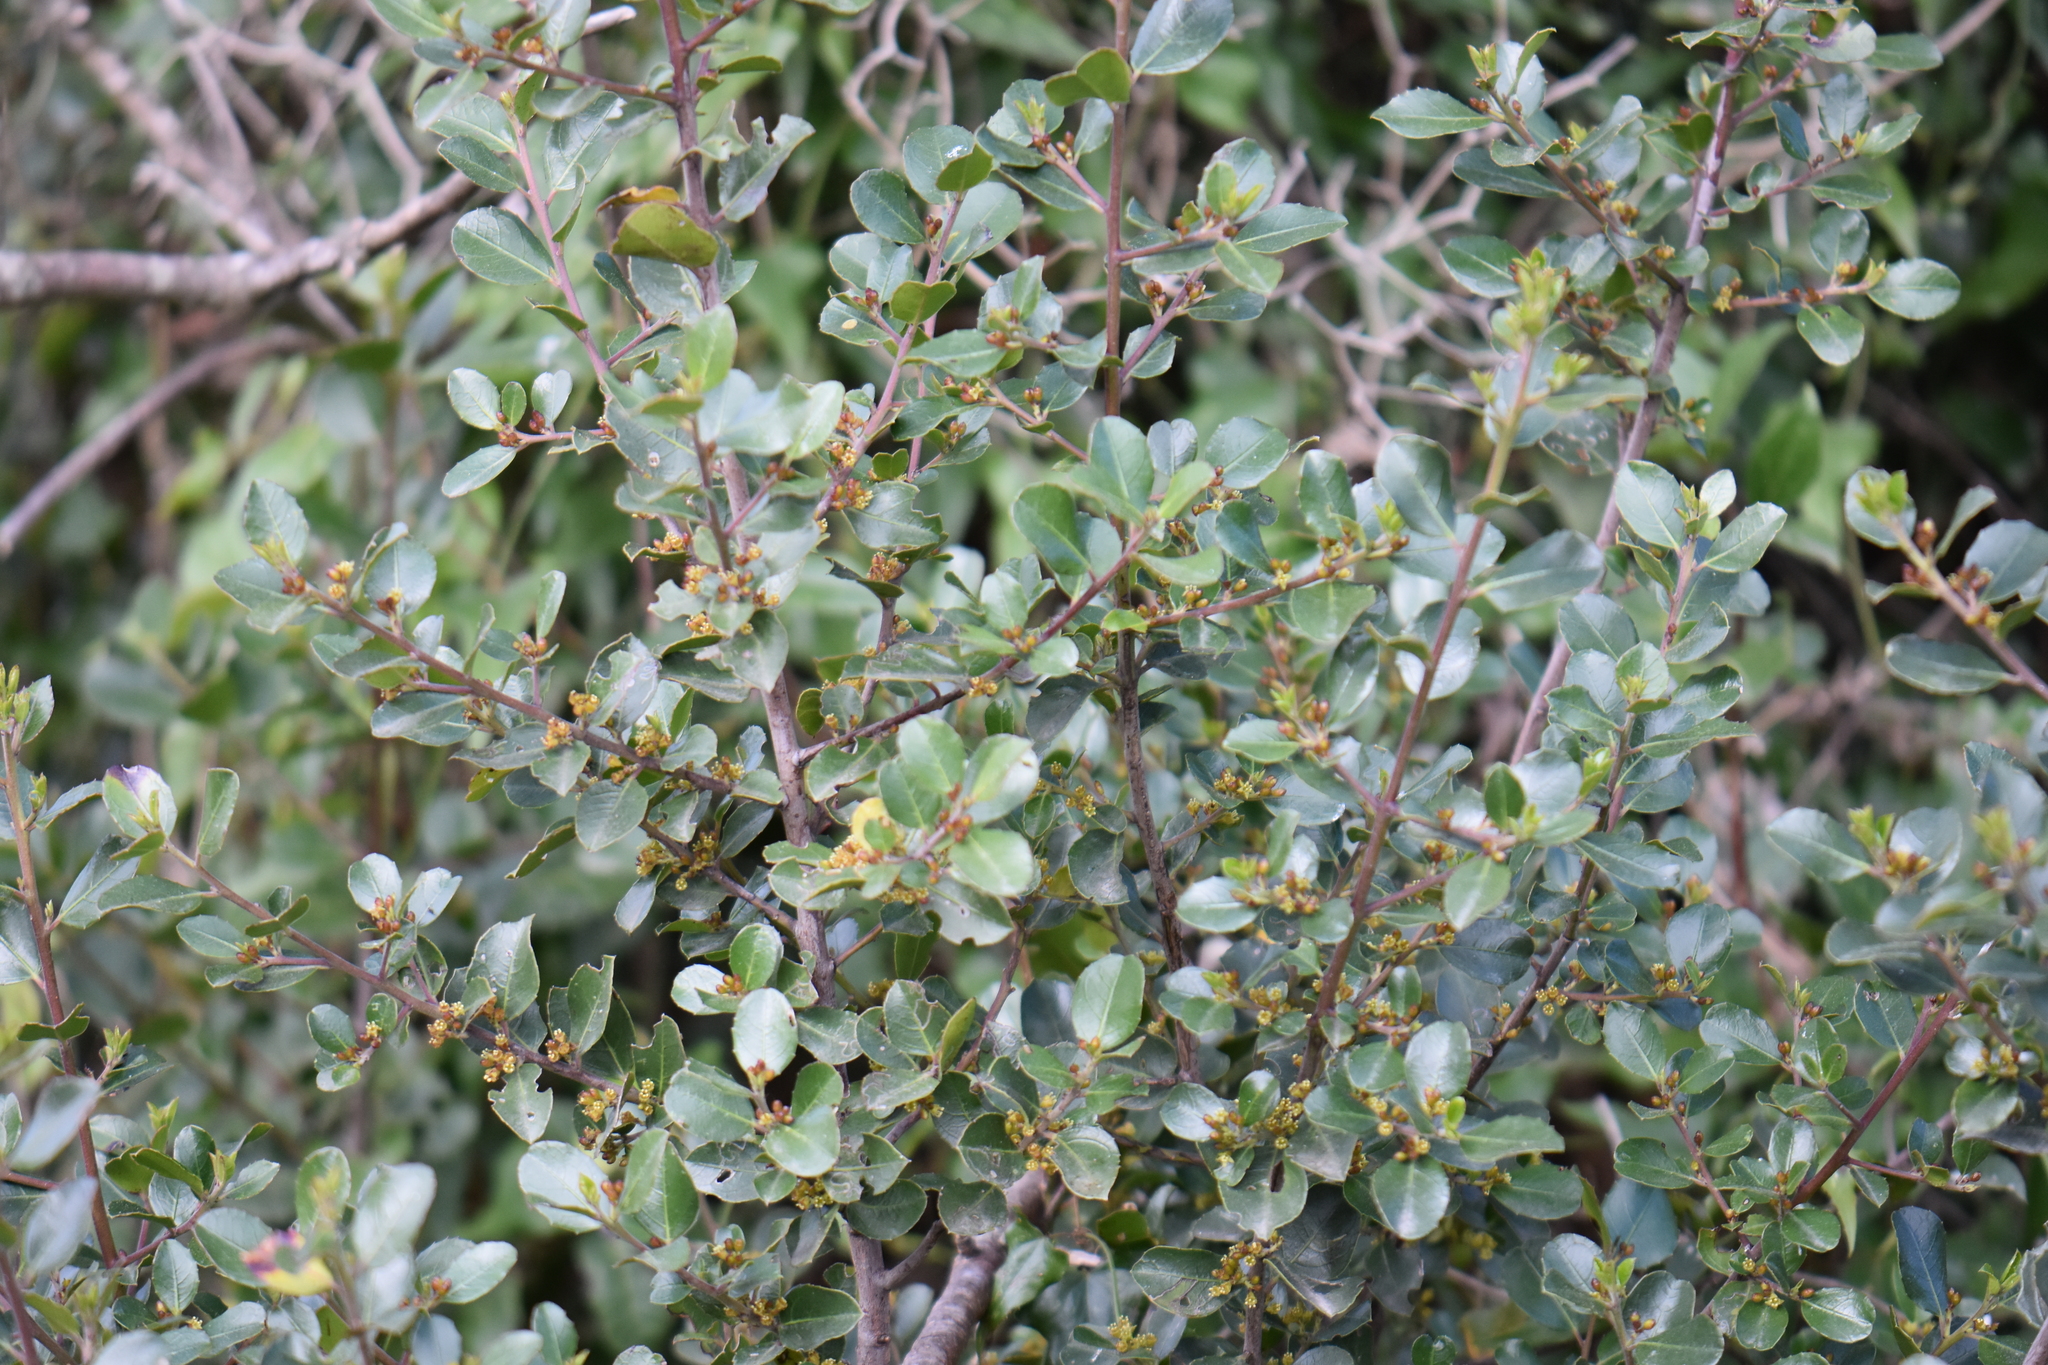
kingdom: Plantae
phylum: Tracheophyta
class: Magnoliopsida
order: Rosales
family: Rhamnaceae
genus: Rhamnus
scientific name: Rhamnus alaternus
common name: Mediterranean buckthorn
